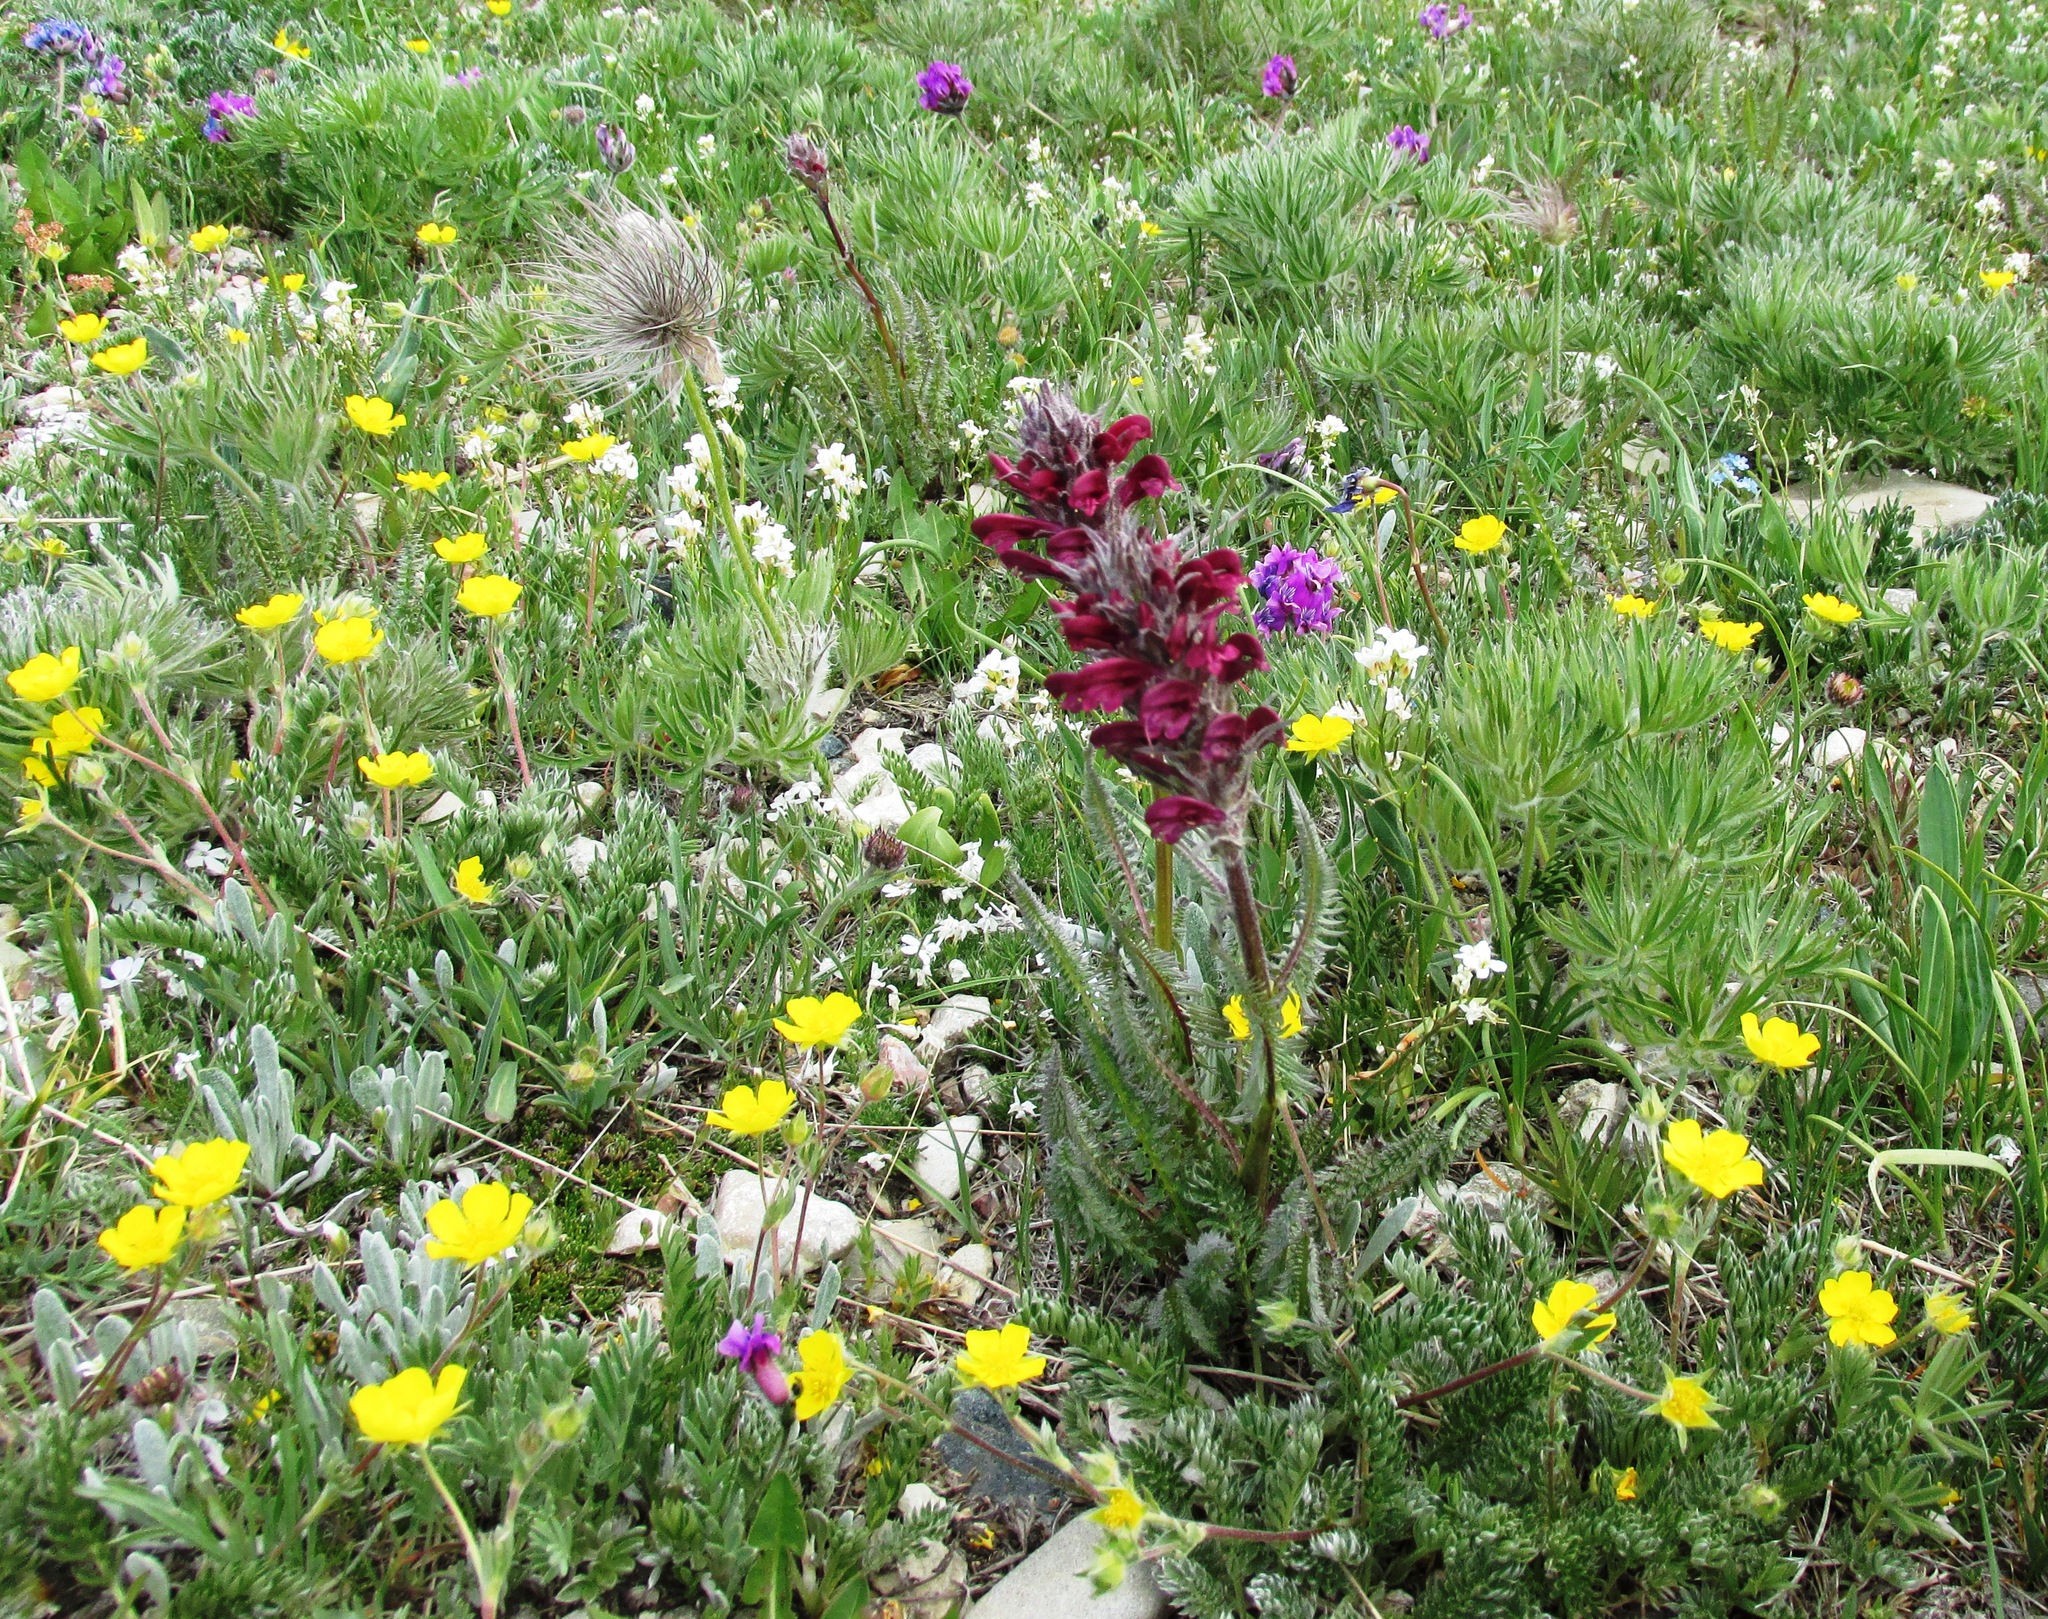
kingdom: Plantae
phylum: Tracheophyta
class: Magnoliopsida
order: Lamiales
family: Orobanchaceae
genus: Pedicularis
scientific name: Pedicularis cystopteridifolia
